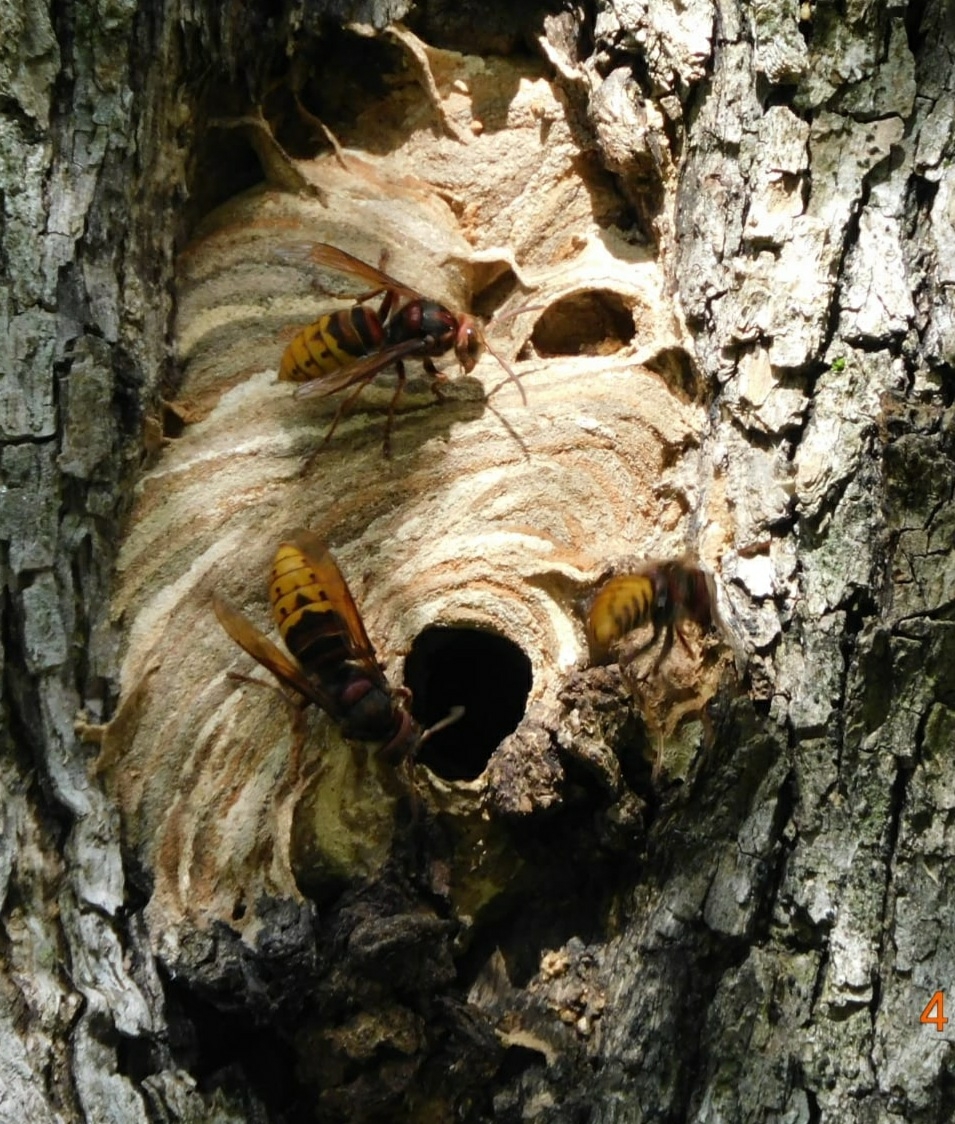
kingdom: Animalia
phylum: Arthropoda
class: Insecta
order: Hymenoptera
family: Vespidae
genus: Vespa
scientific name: Vespa crabro
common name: Hornet
